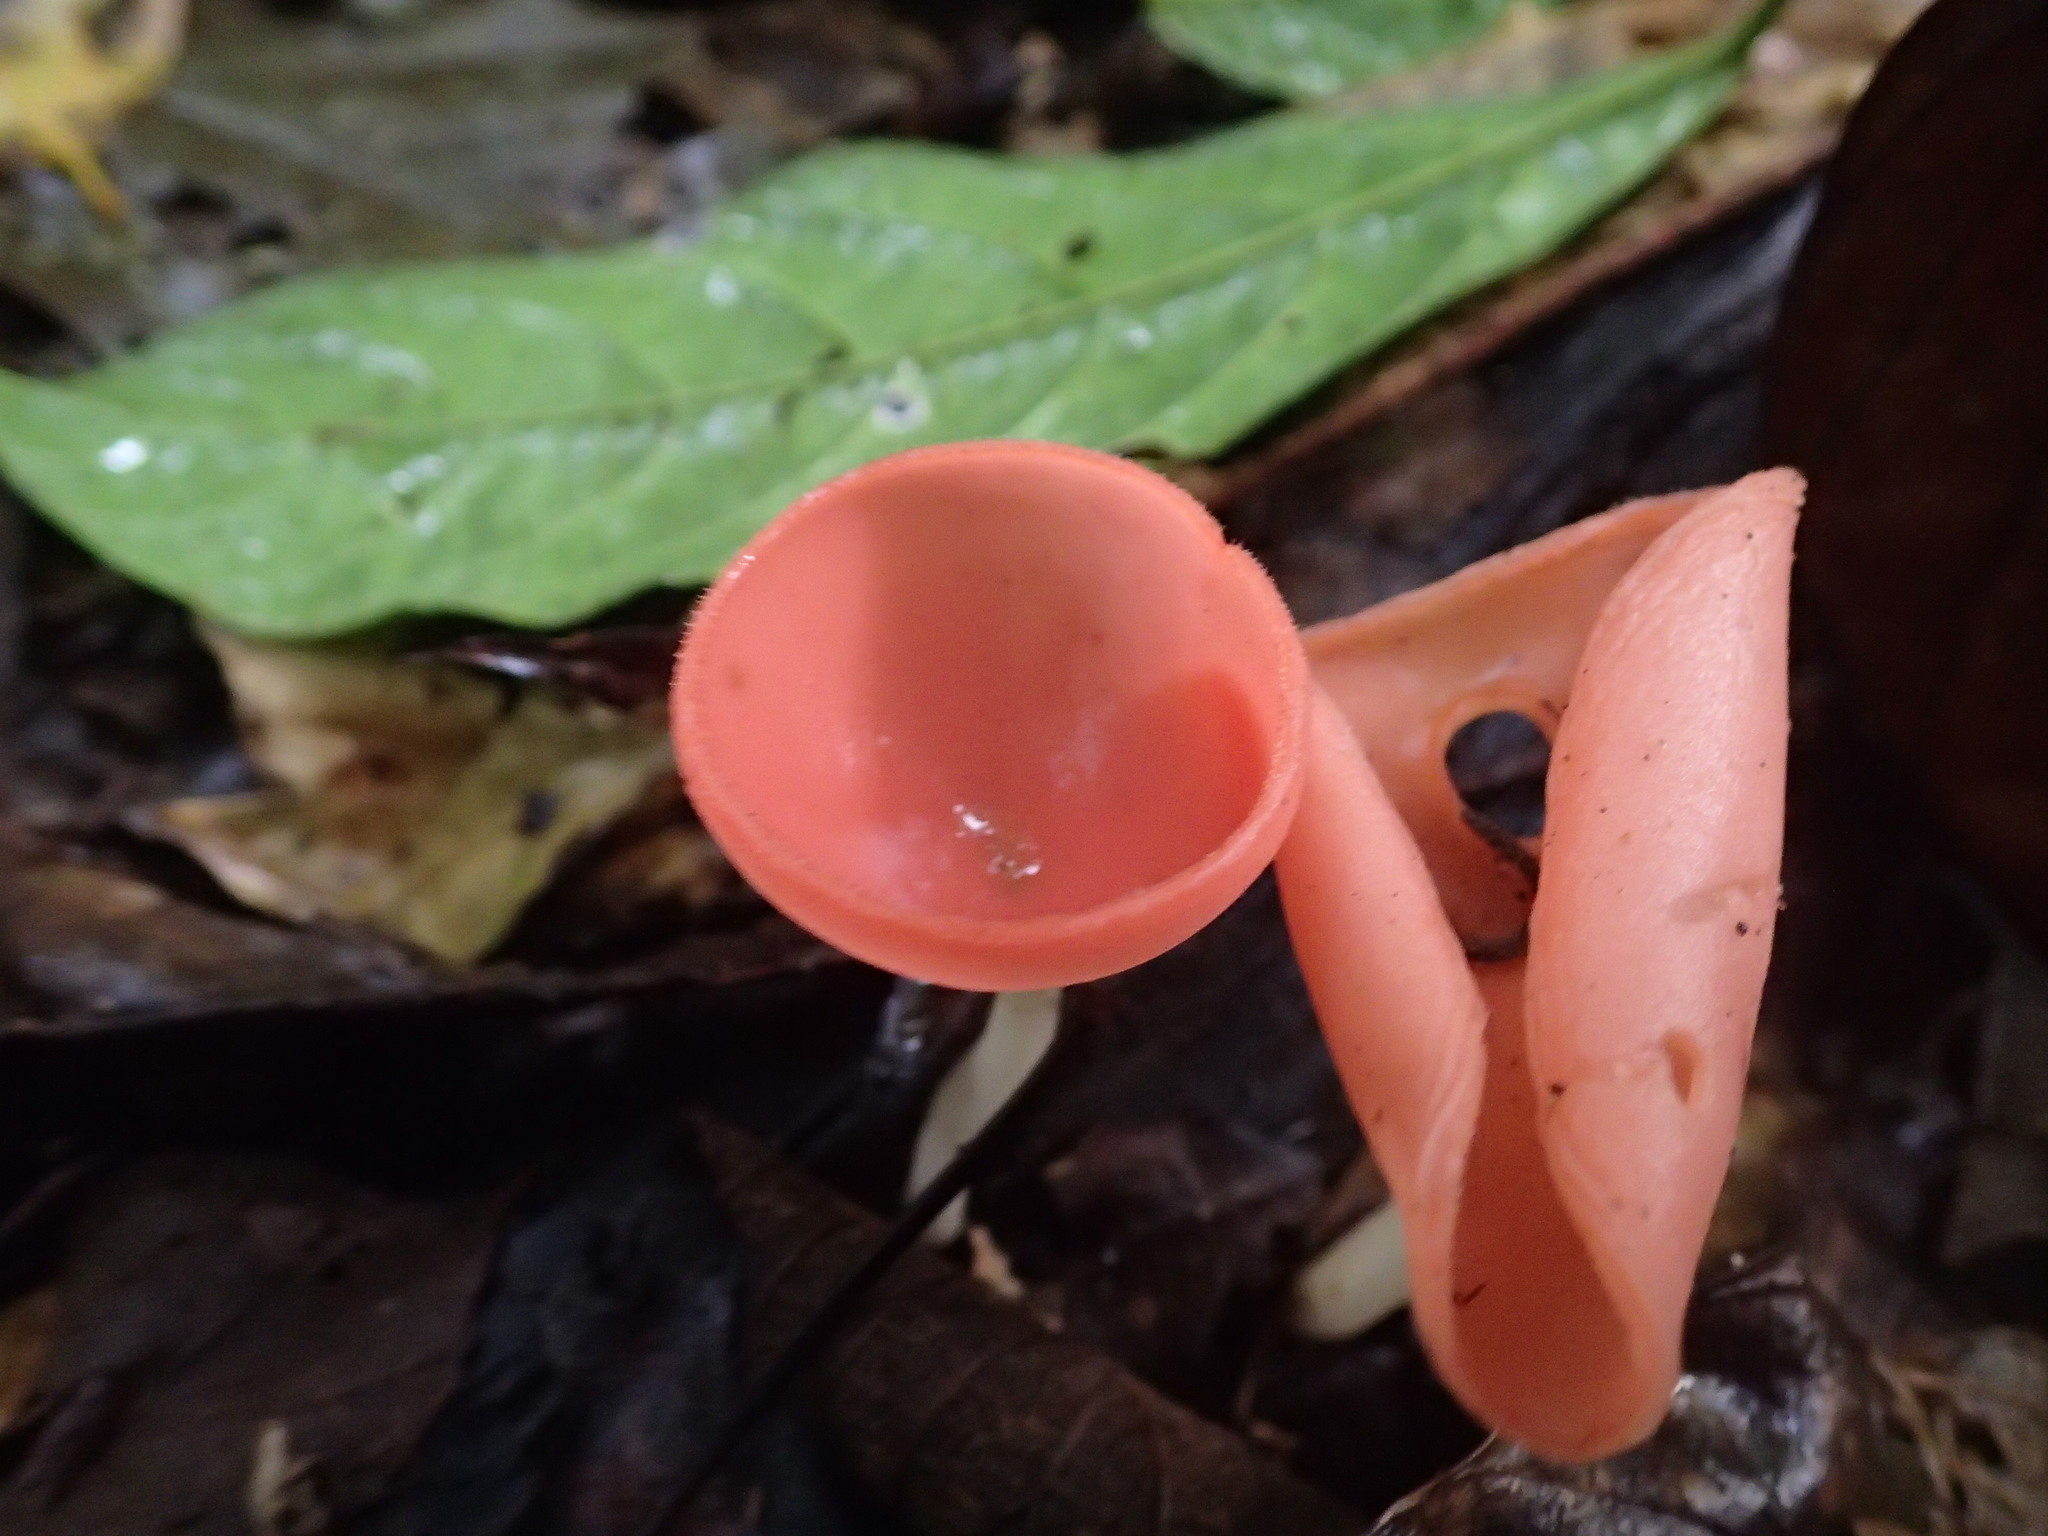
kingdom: Fungi
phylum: Ascomycota
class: Pezizomycetes
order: Pezizales
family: Sarcoscyphaceae
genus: Cookeina
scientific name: Cookeina speciosa
